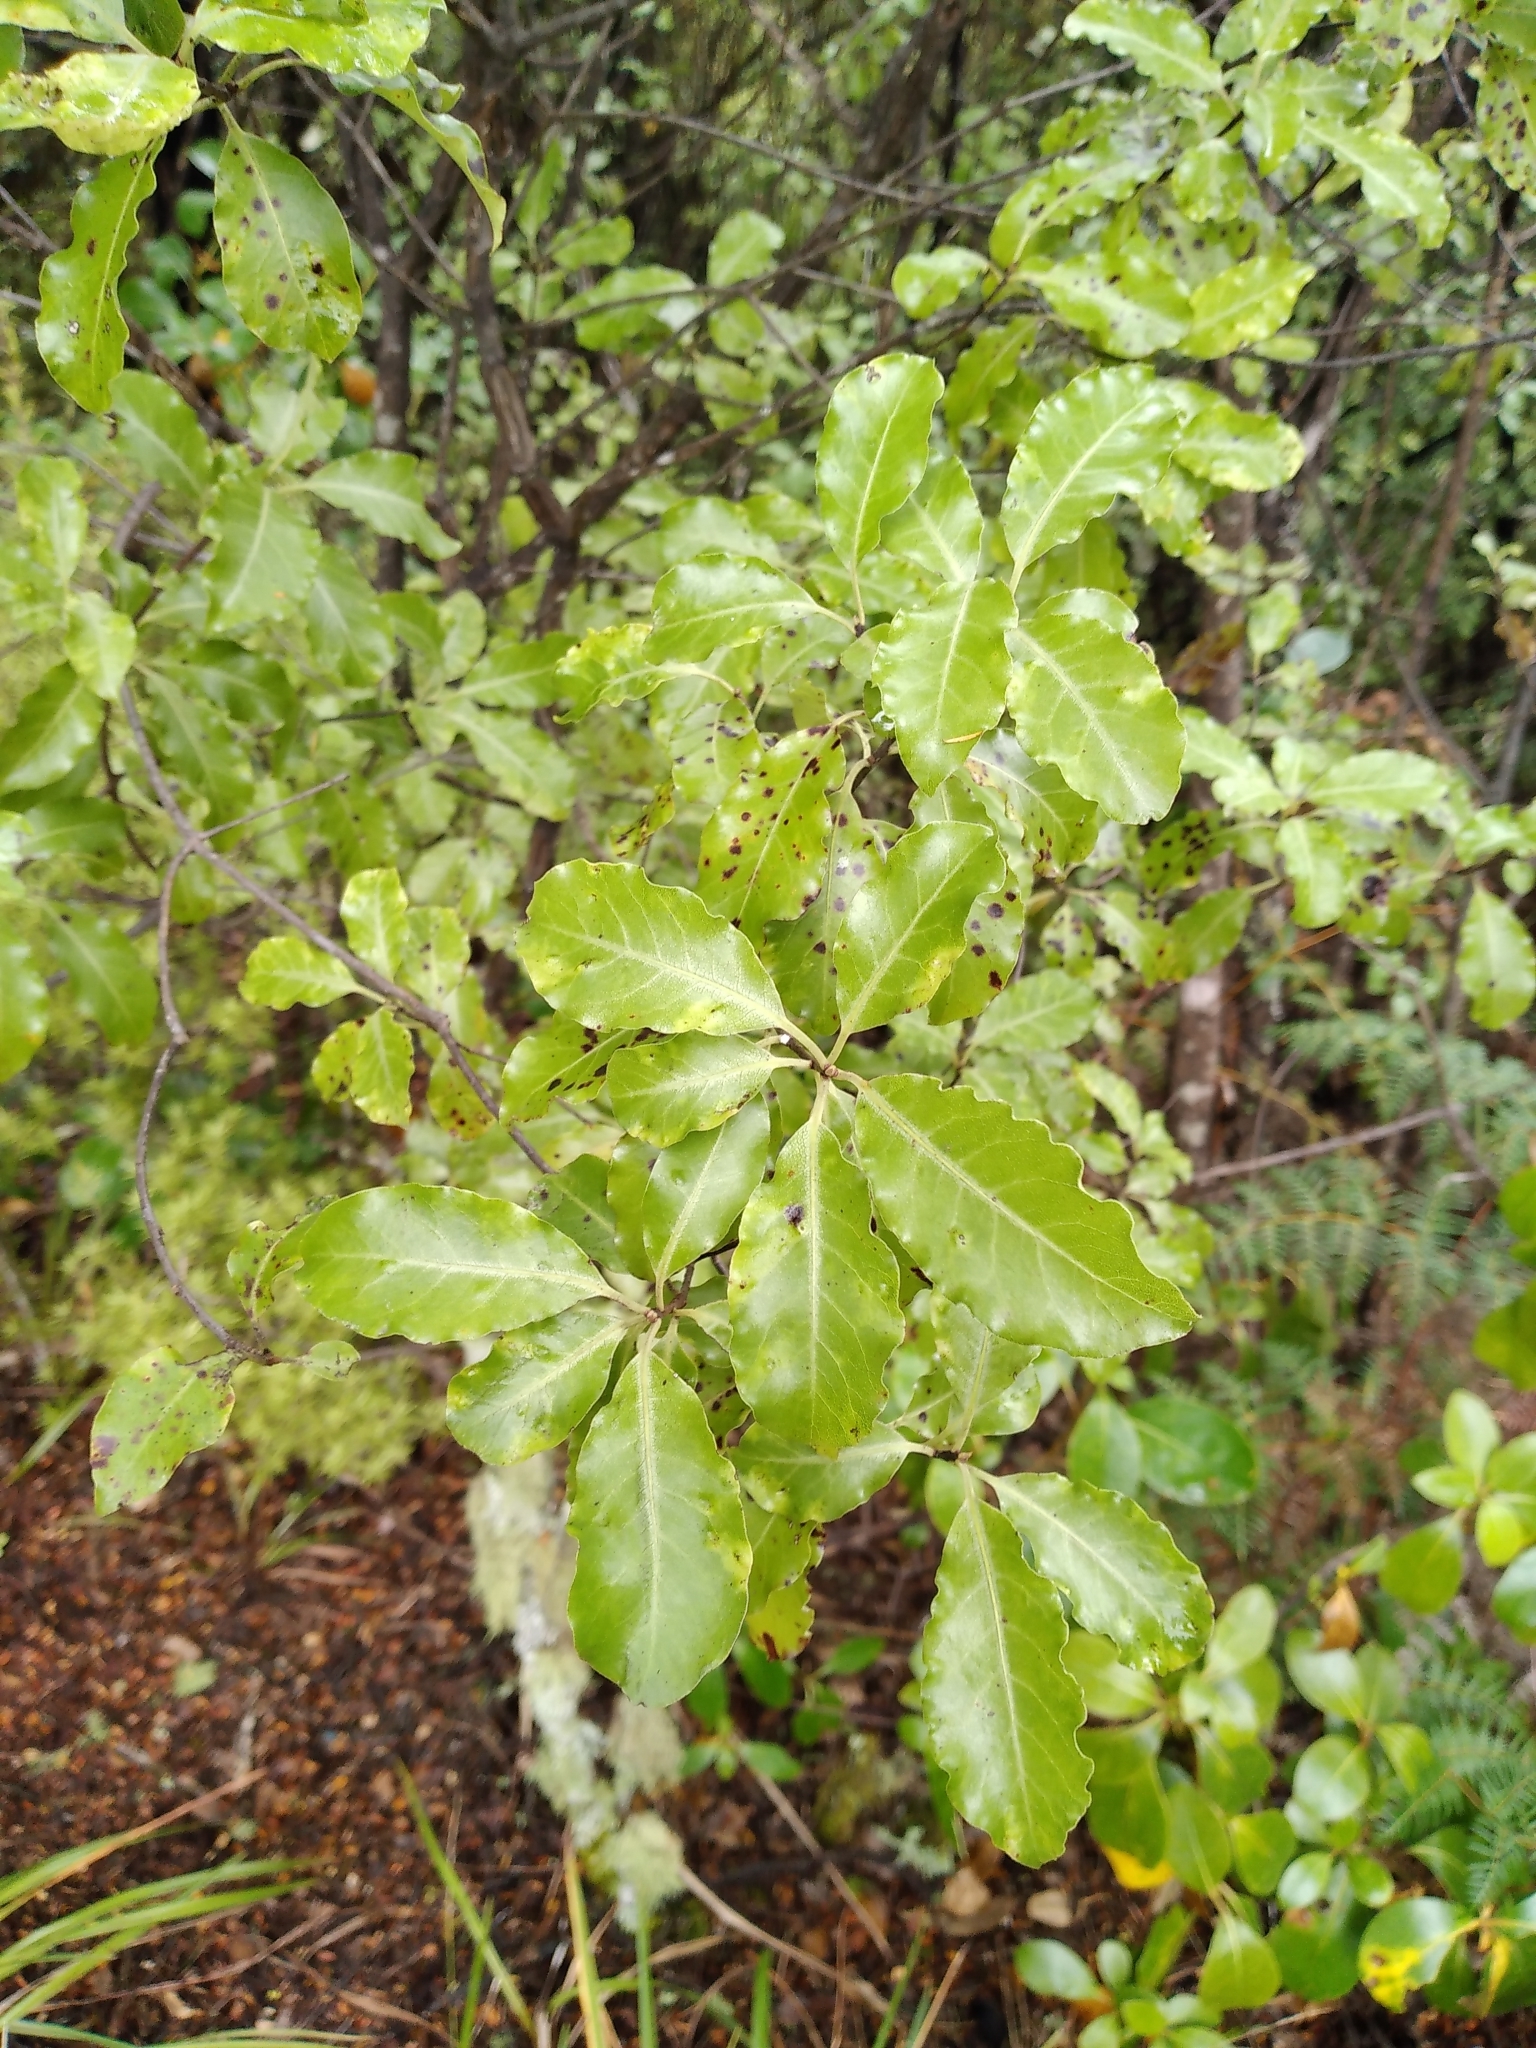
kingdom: Plantae
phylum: Tracheophyta
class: Magnoliopsida
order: Apiales
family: Pittosporaceae
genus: Pittosporum
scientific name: Pittosporum tenuifolium
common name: Kohuhu
